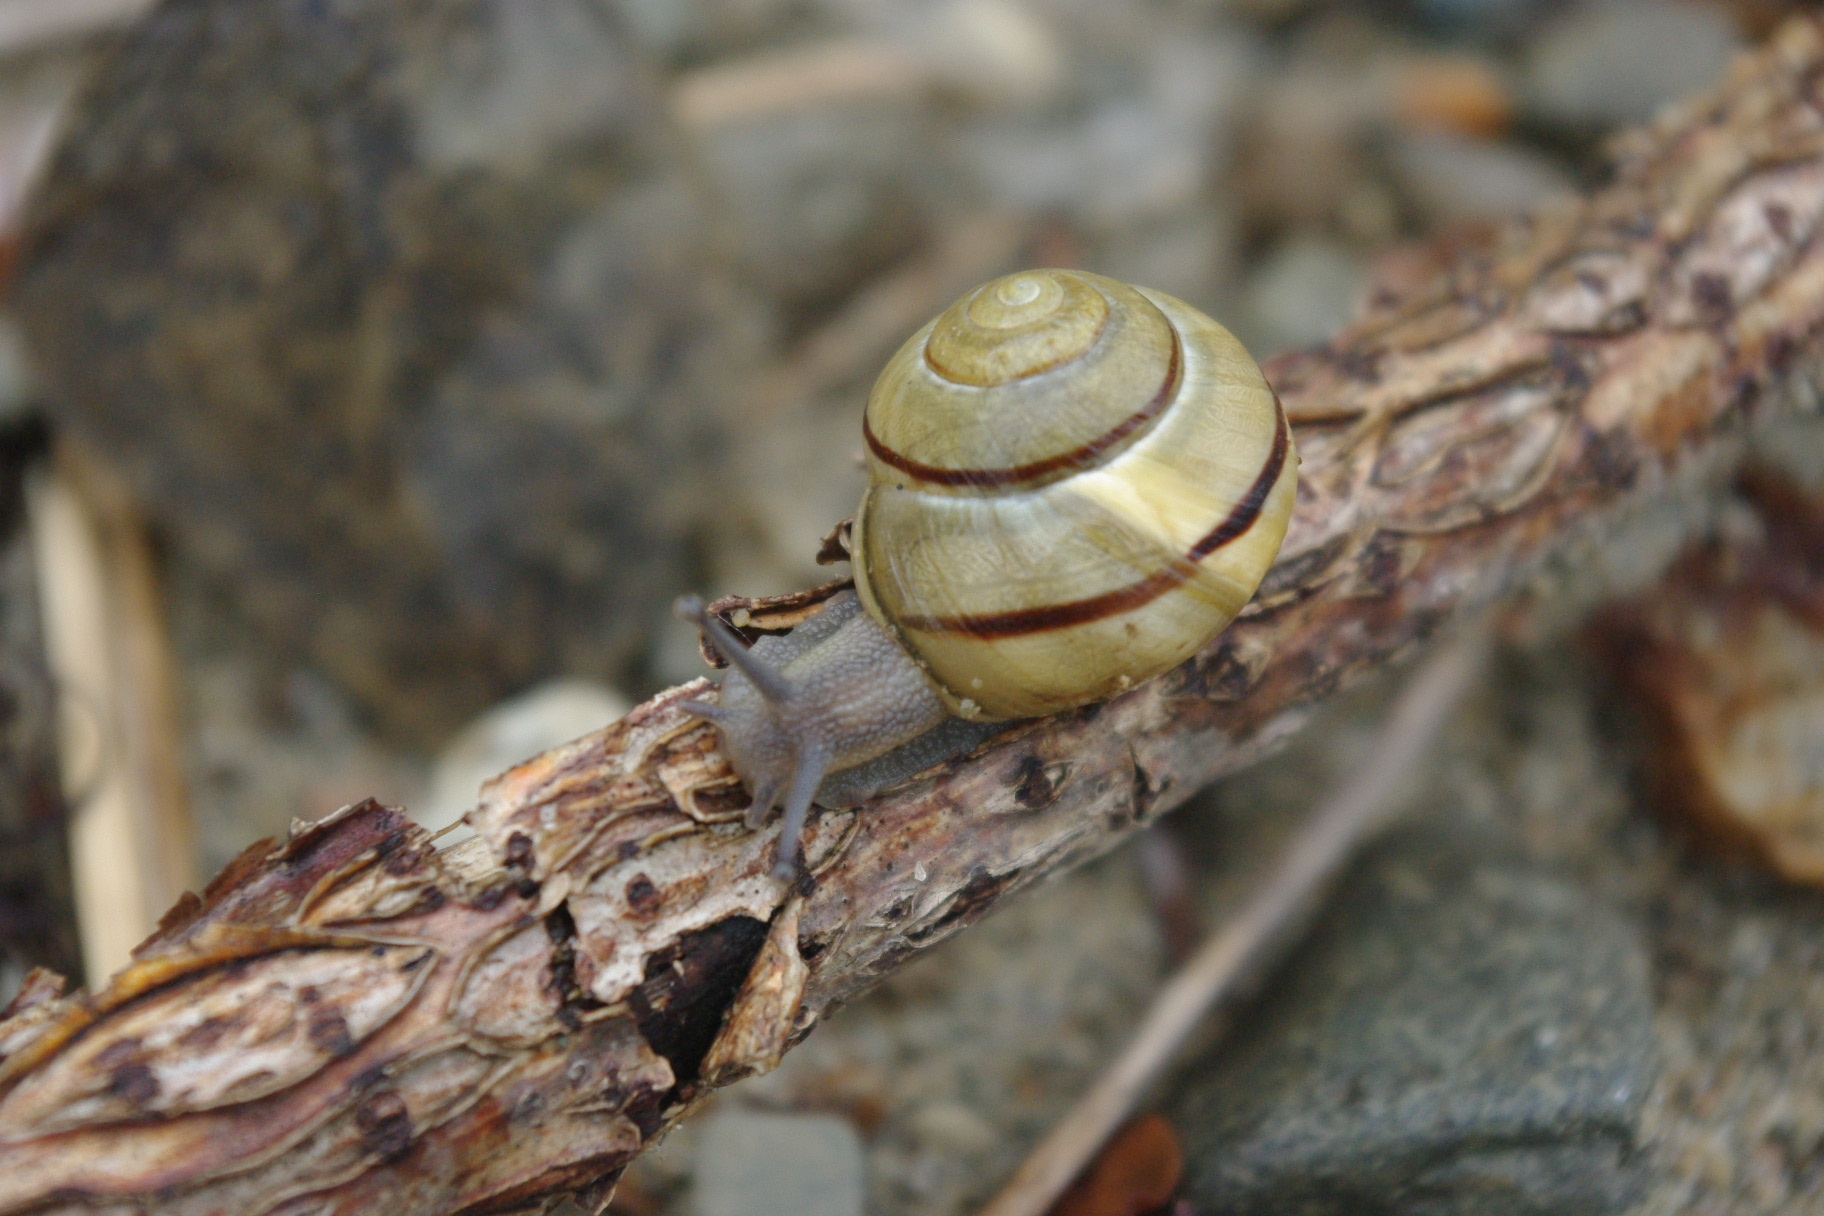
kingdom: Animalia
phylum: Mollusca
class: Gastropoda
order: Stylommatophora
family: Helicidae
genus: Cepaea
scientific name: Cepaea nemoralis
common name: Grovesnail
